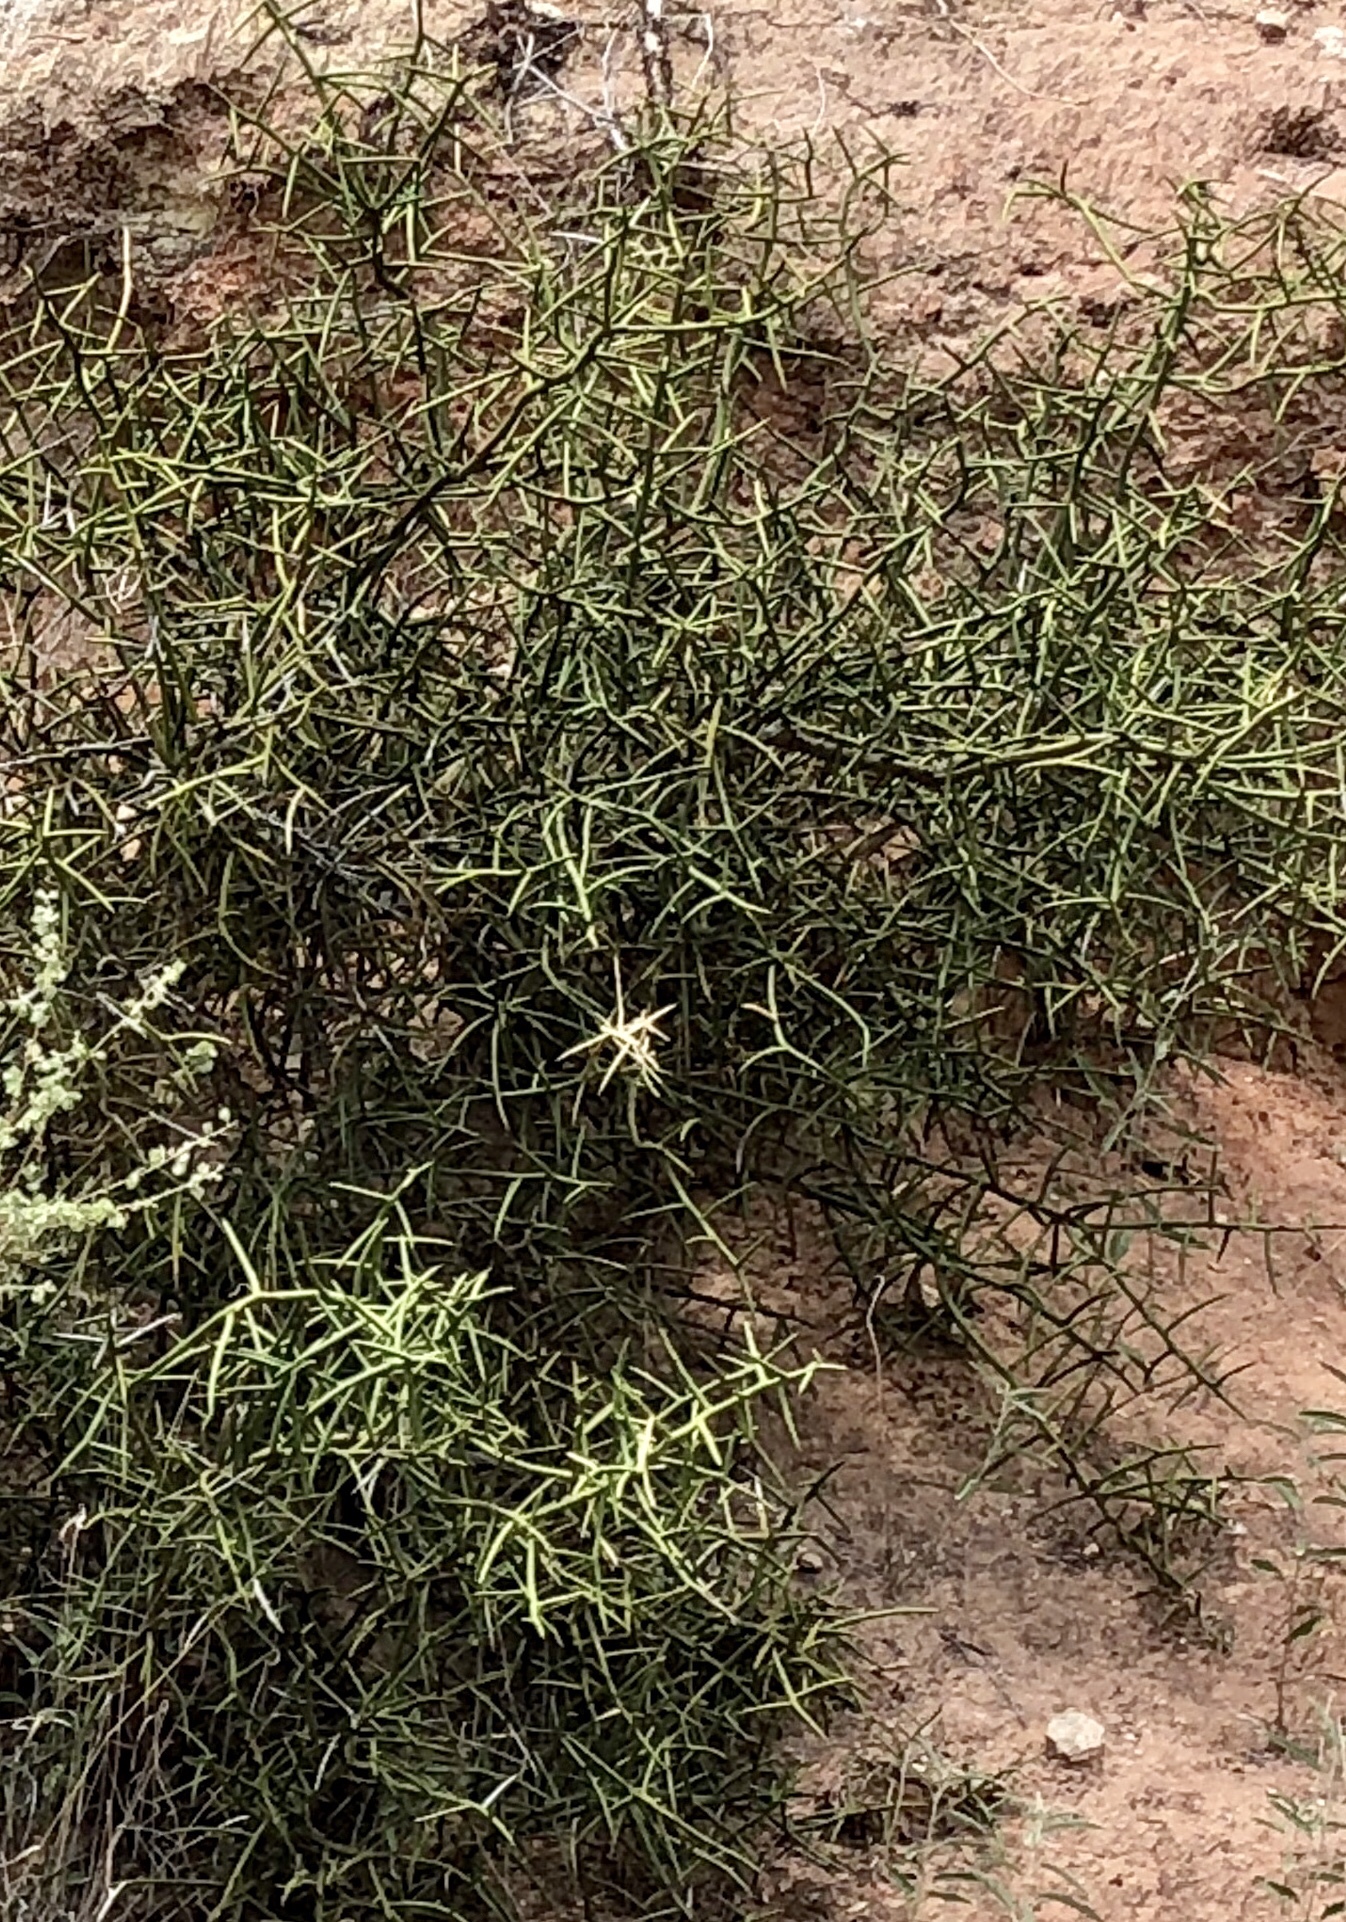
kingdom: Plantae
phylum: Tracheophyta
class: Magnoliopsida
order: Brassicales
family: Koeberliniaceae
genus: Koeberlinia
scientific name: Koeberlinia spinosa
